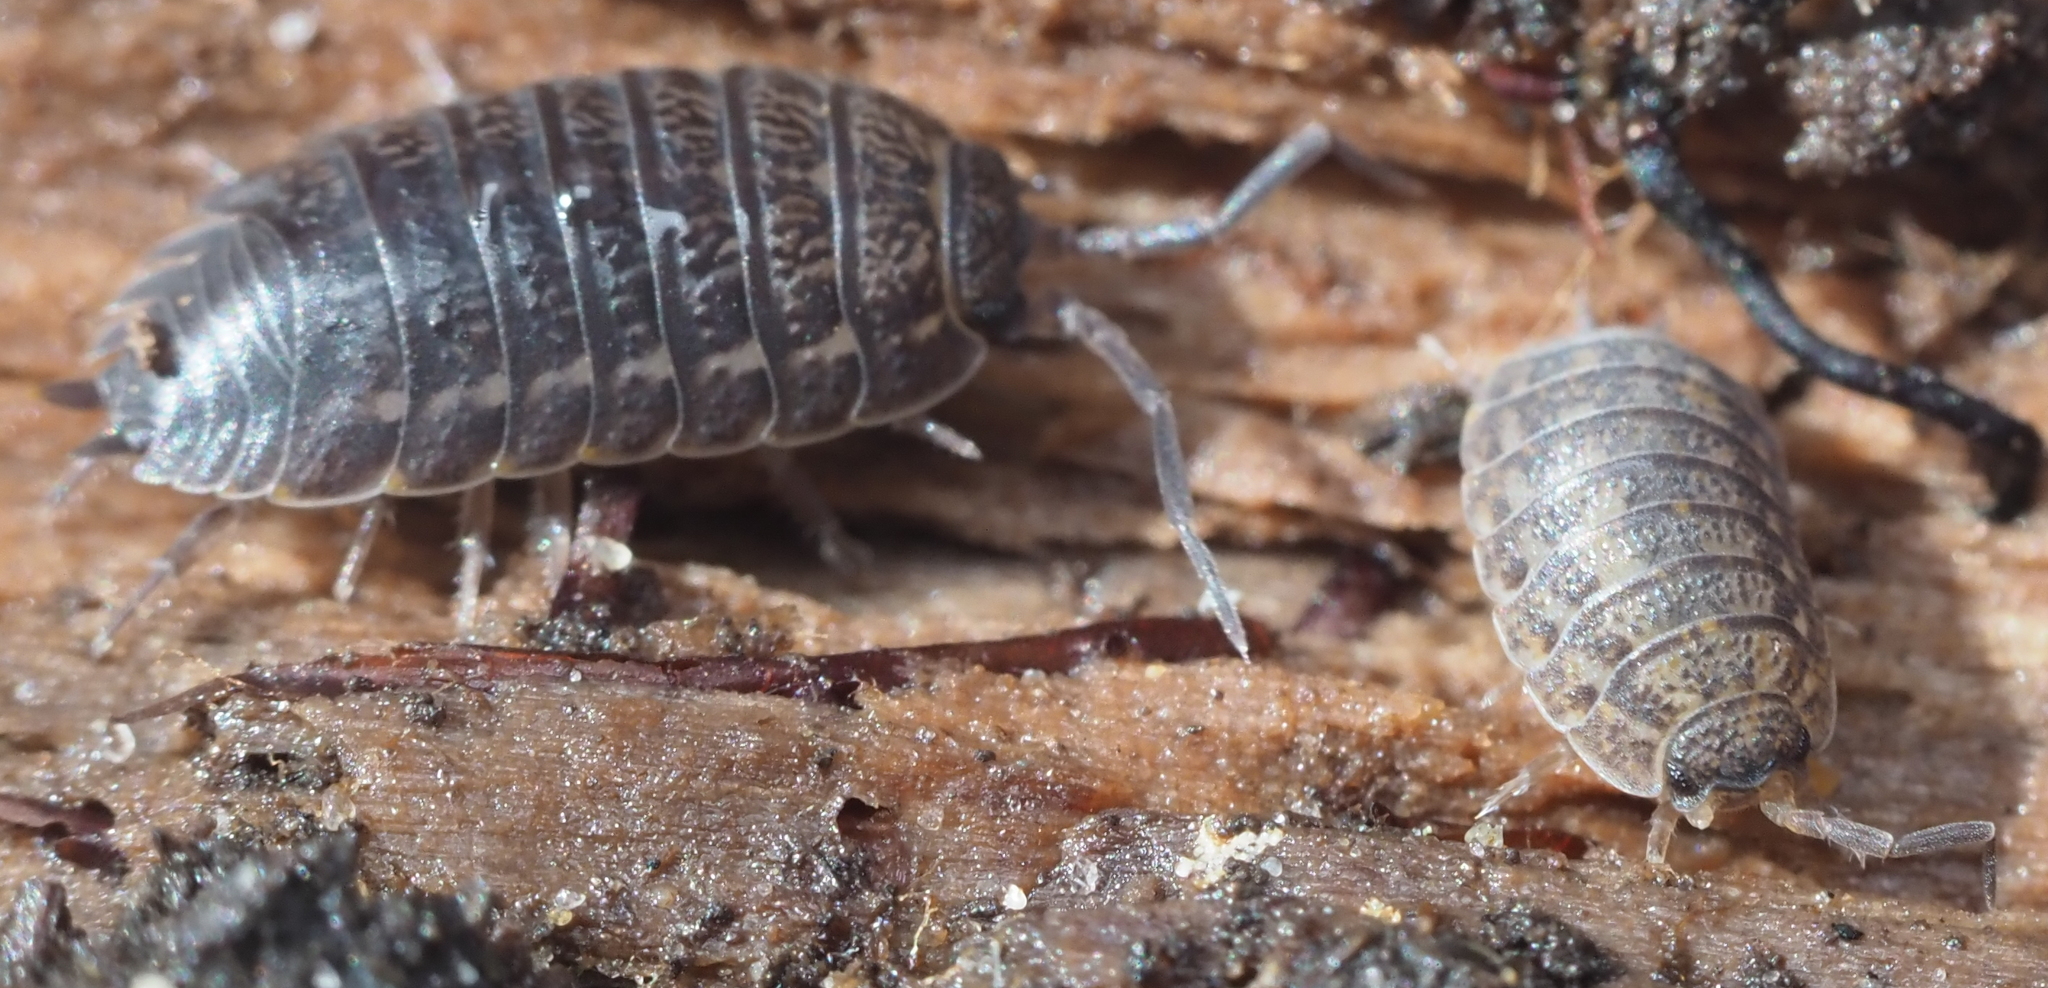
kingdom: Animalia
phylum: Arthropoda
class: Malacostraca
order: Isopoda
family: Trachelipodidae
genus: Trachelipus
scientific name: Trachelipus rathkii
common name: Isopod
